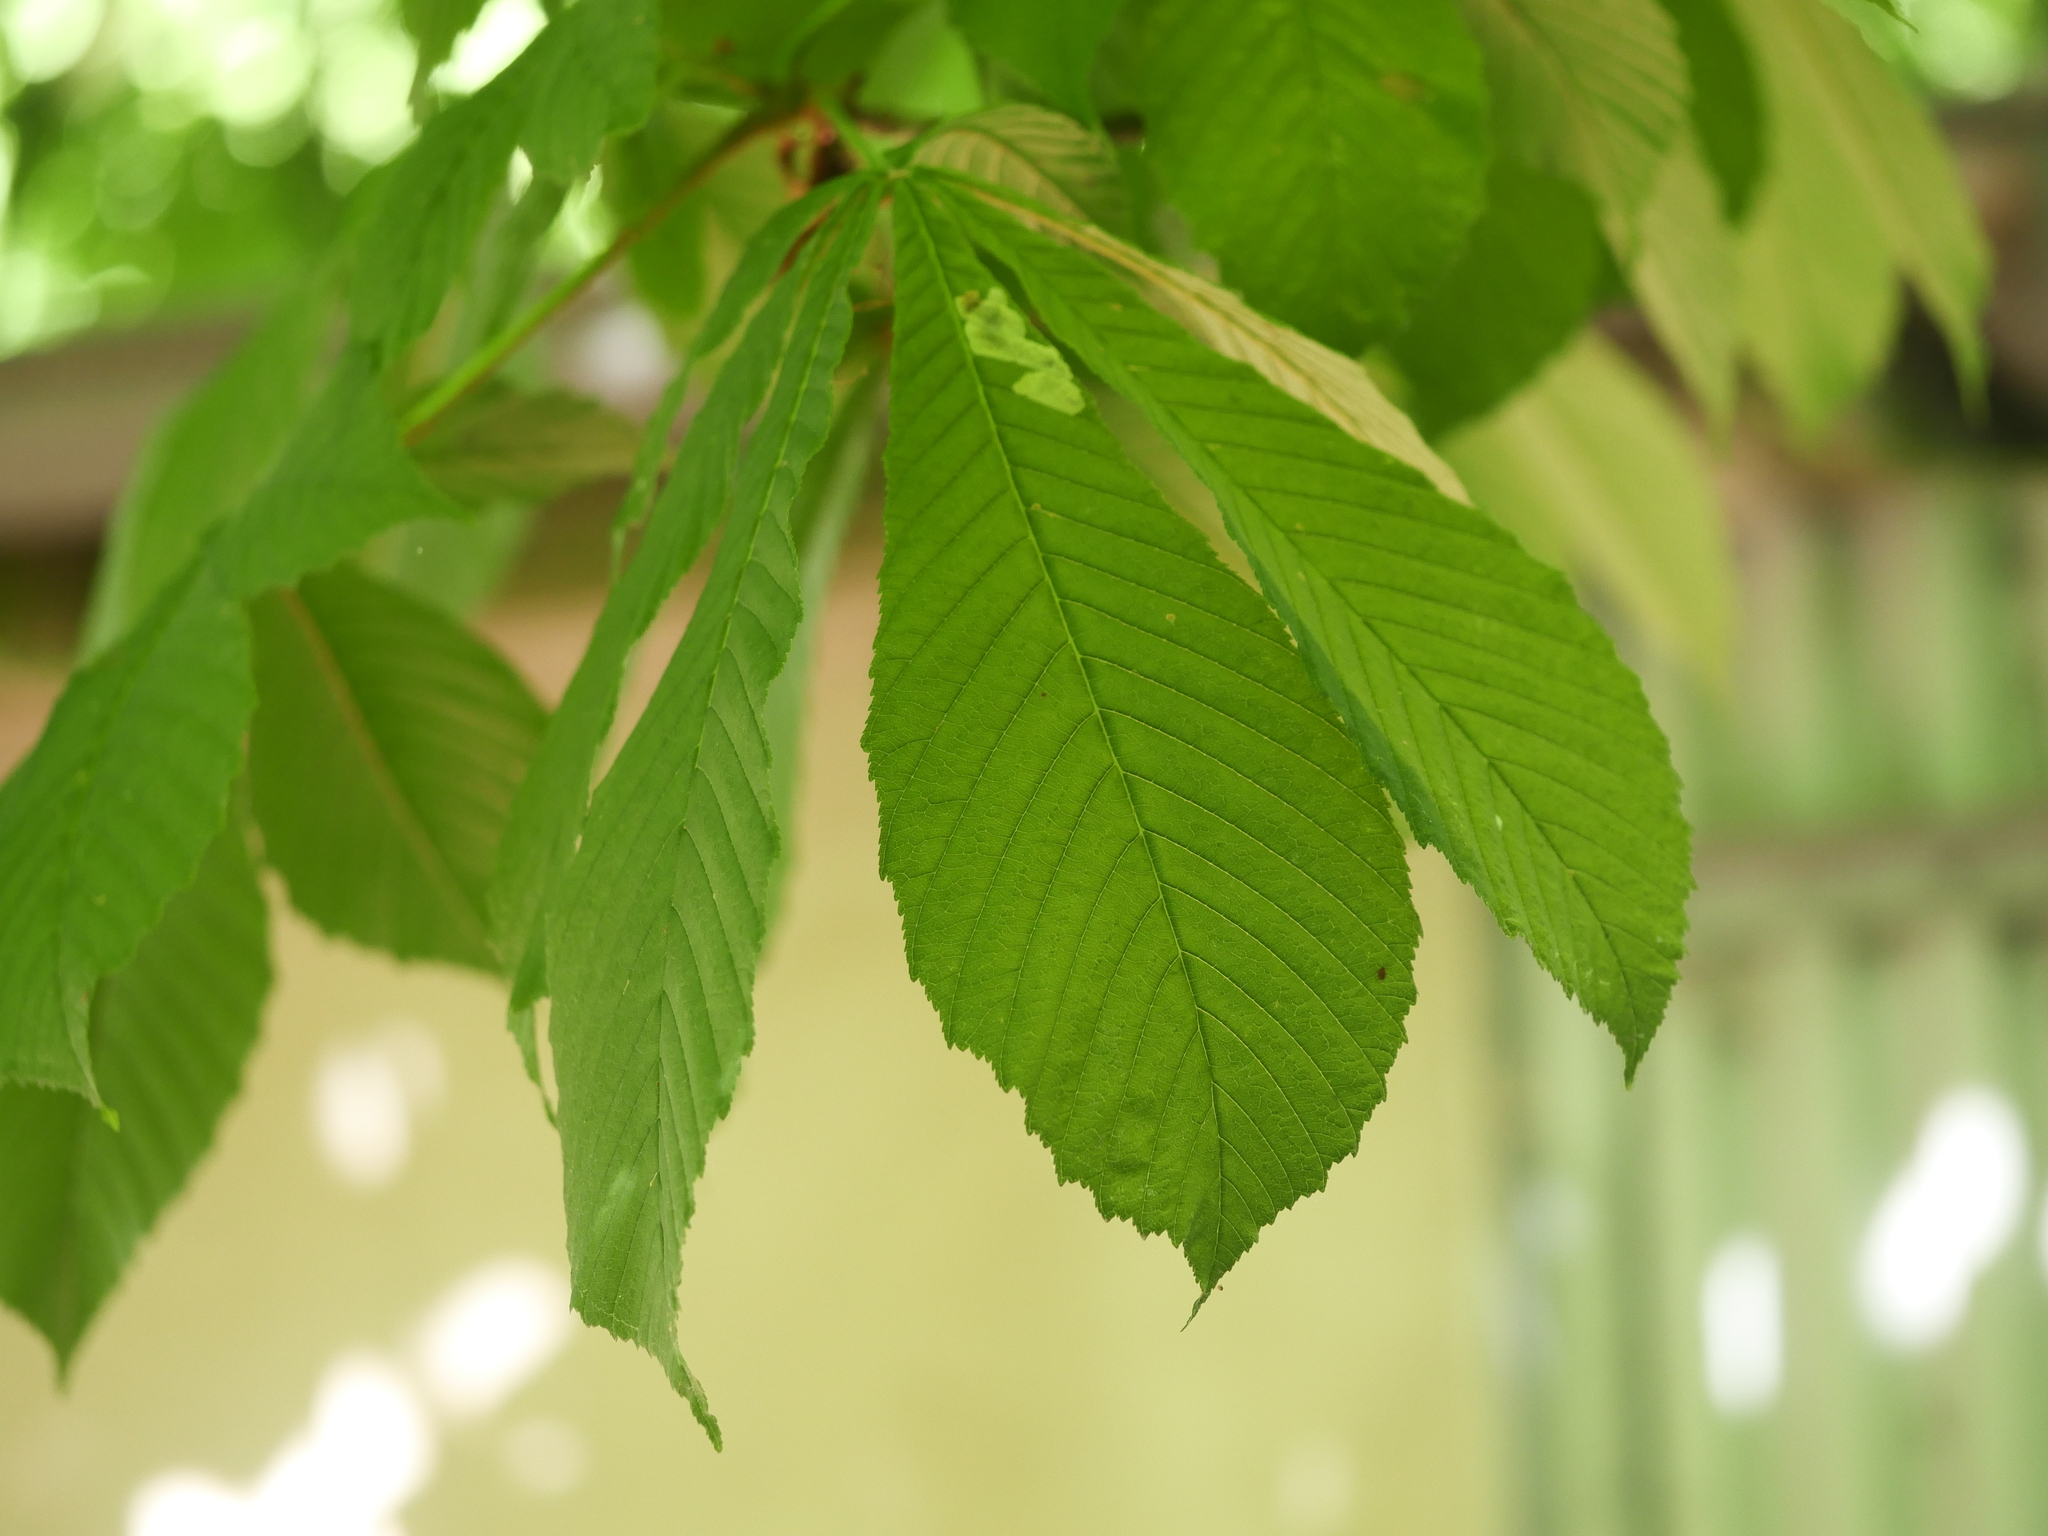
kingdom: Plantae
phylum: Tracheophyta
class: Magnoliopsida
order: Sapindales
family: Sapindaceae
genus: Aesculus
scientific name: Aesculus hippocastanum
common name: Horse-chestnut
